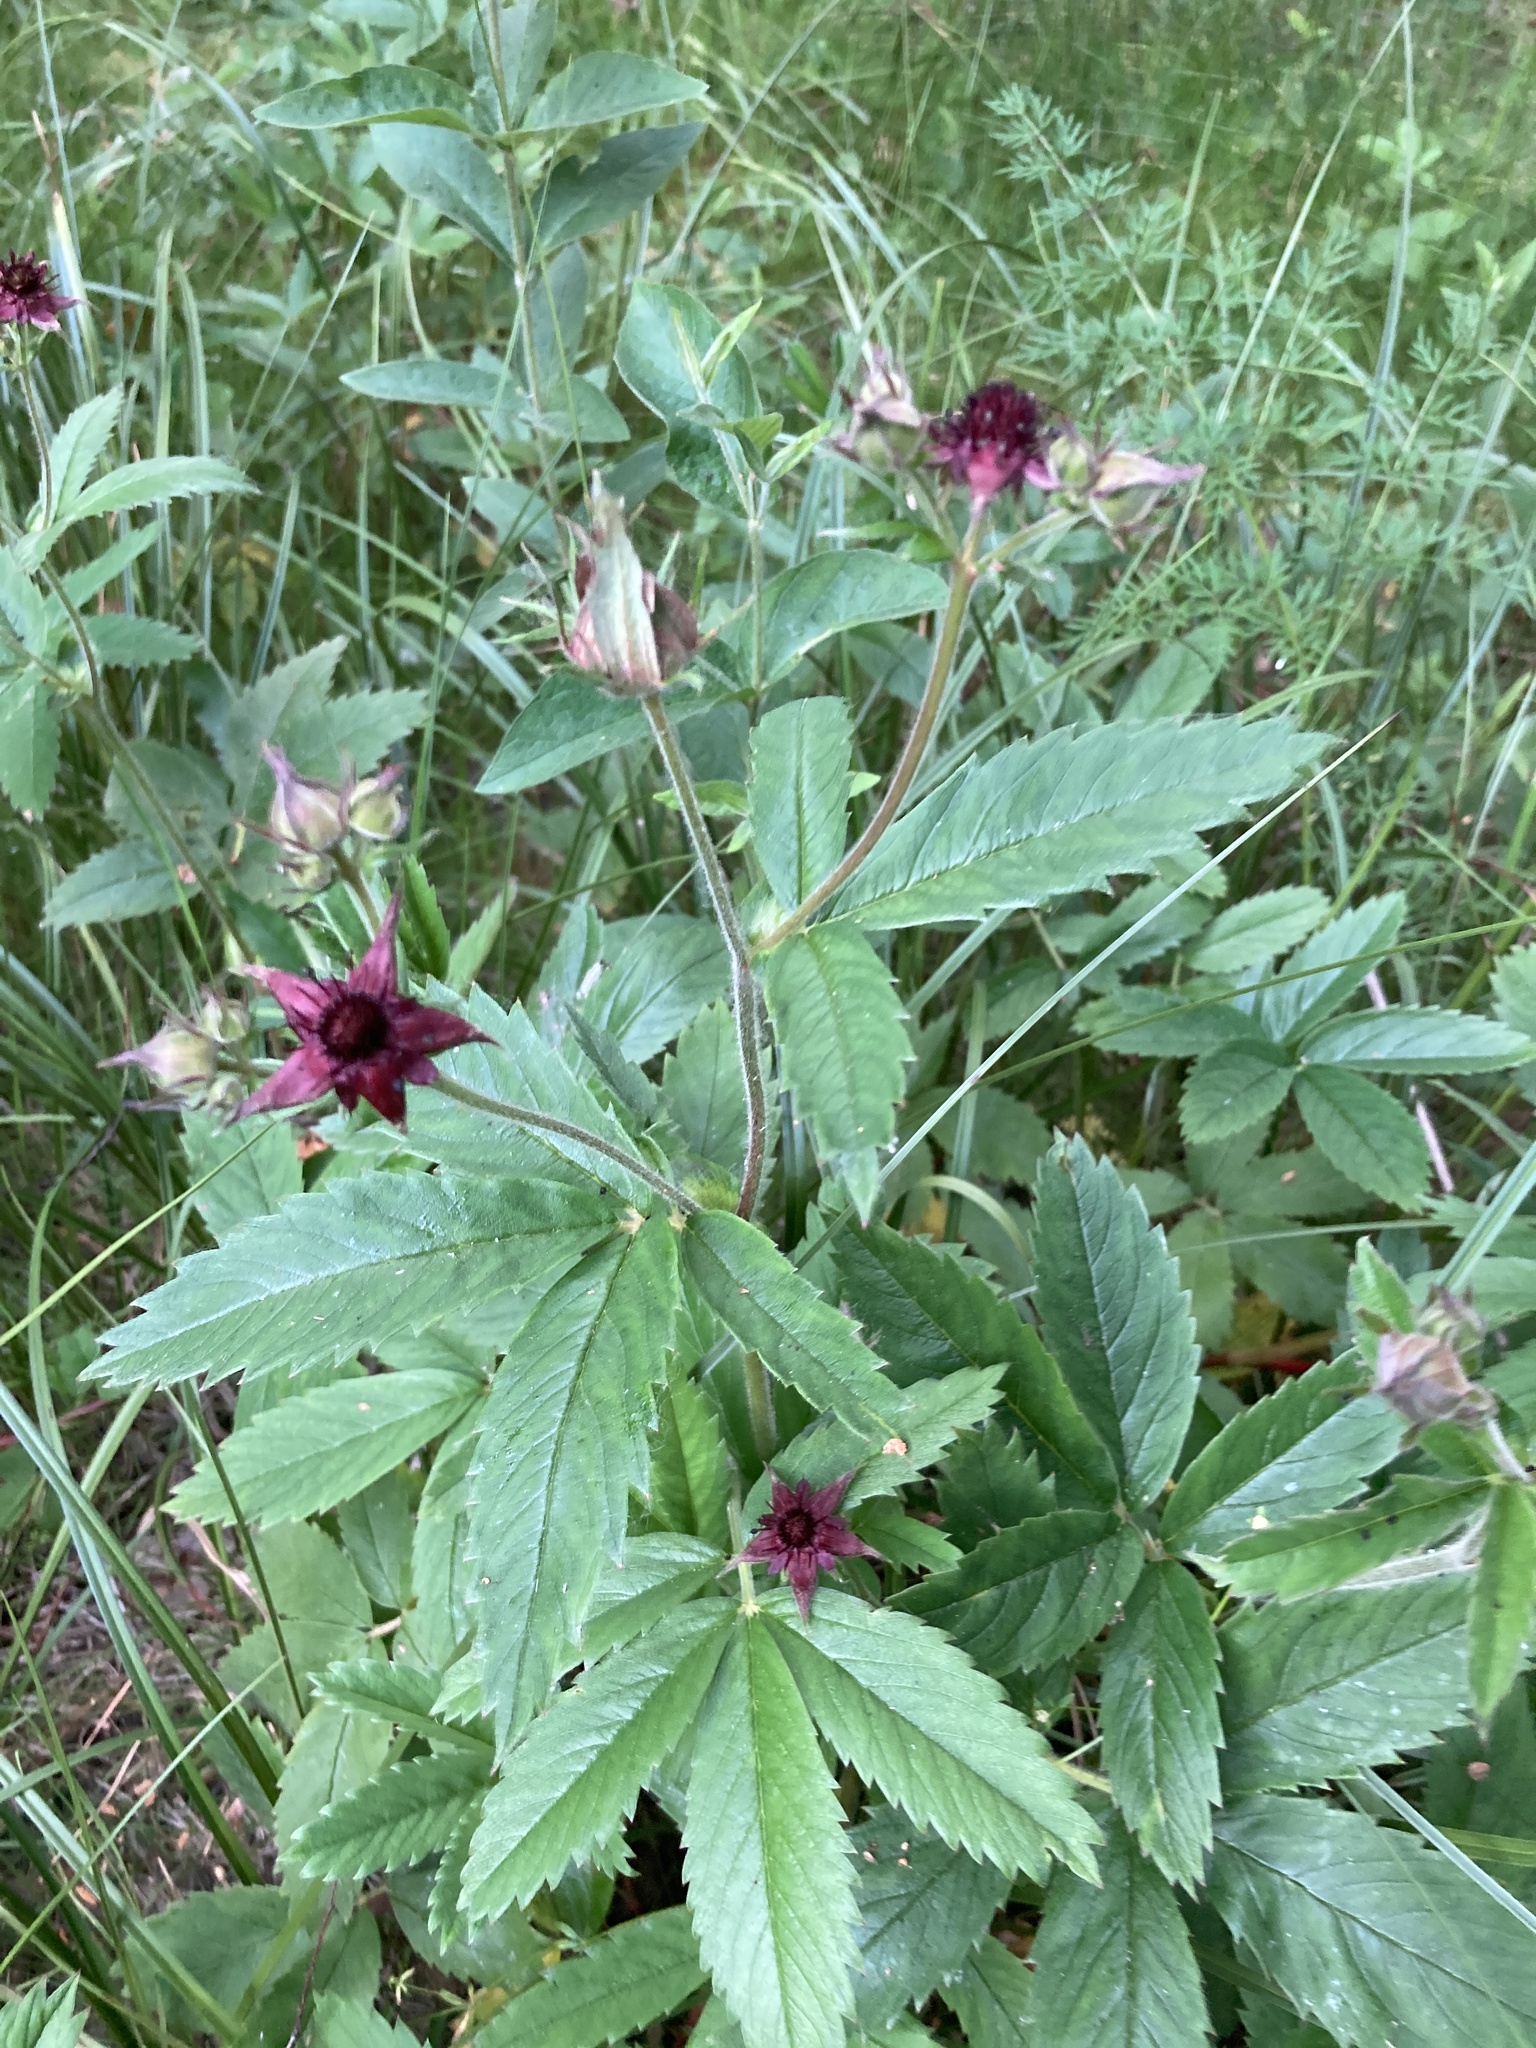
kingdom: Plantae
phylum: Tracheophyta
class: Magnoliopsida
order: Rosales
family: Rosaceae
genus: Comarum
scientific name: Comarum palustre
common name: Marsh cinquefoil
